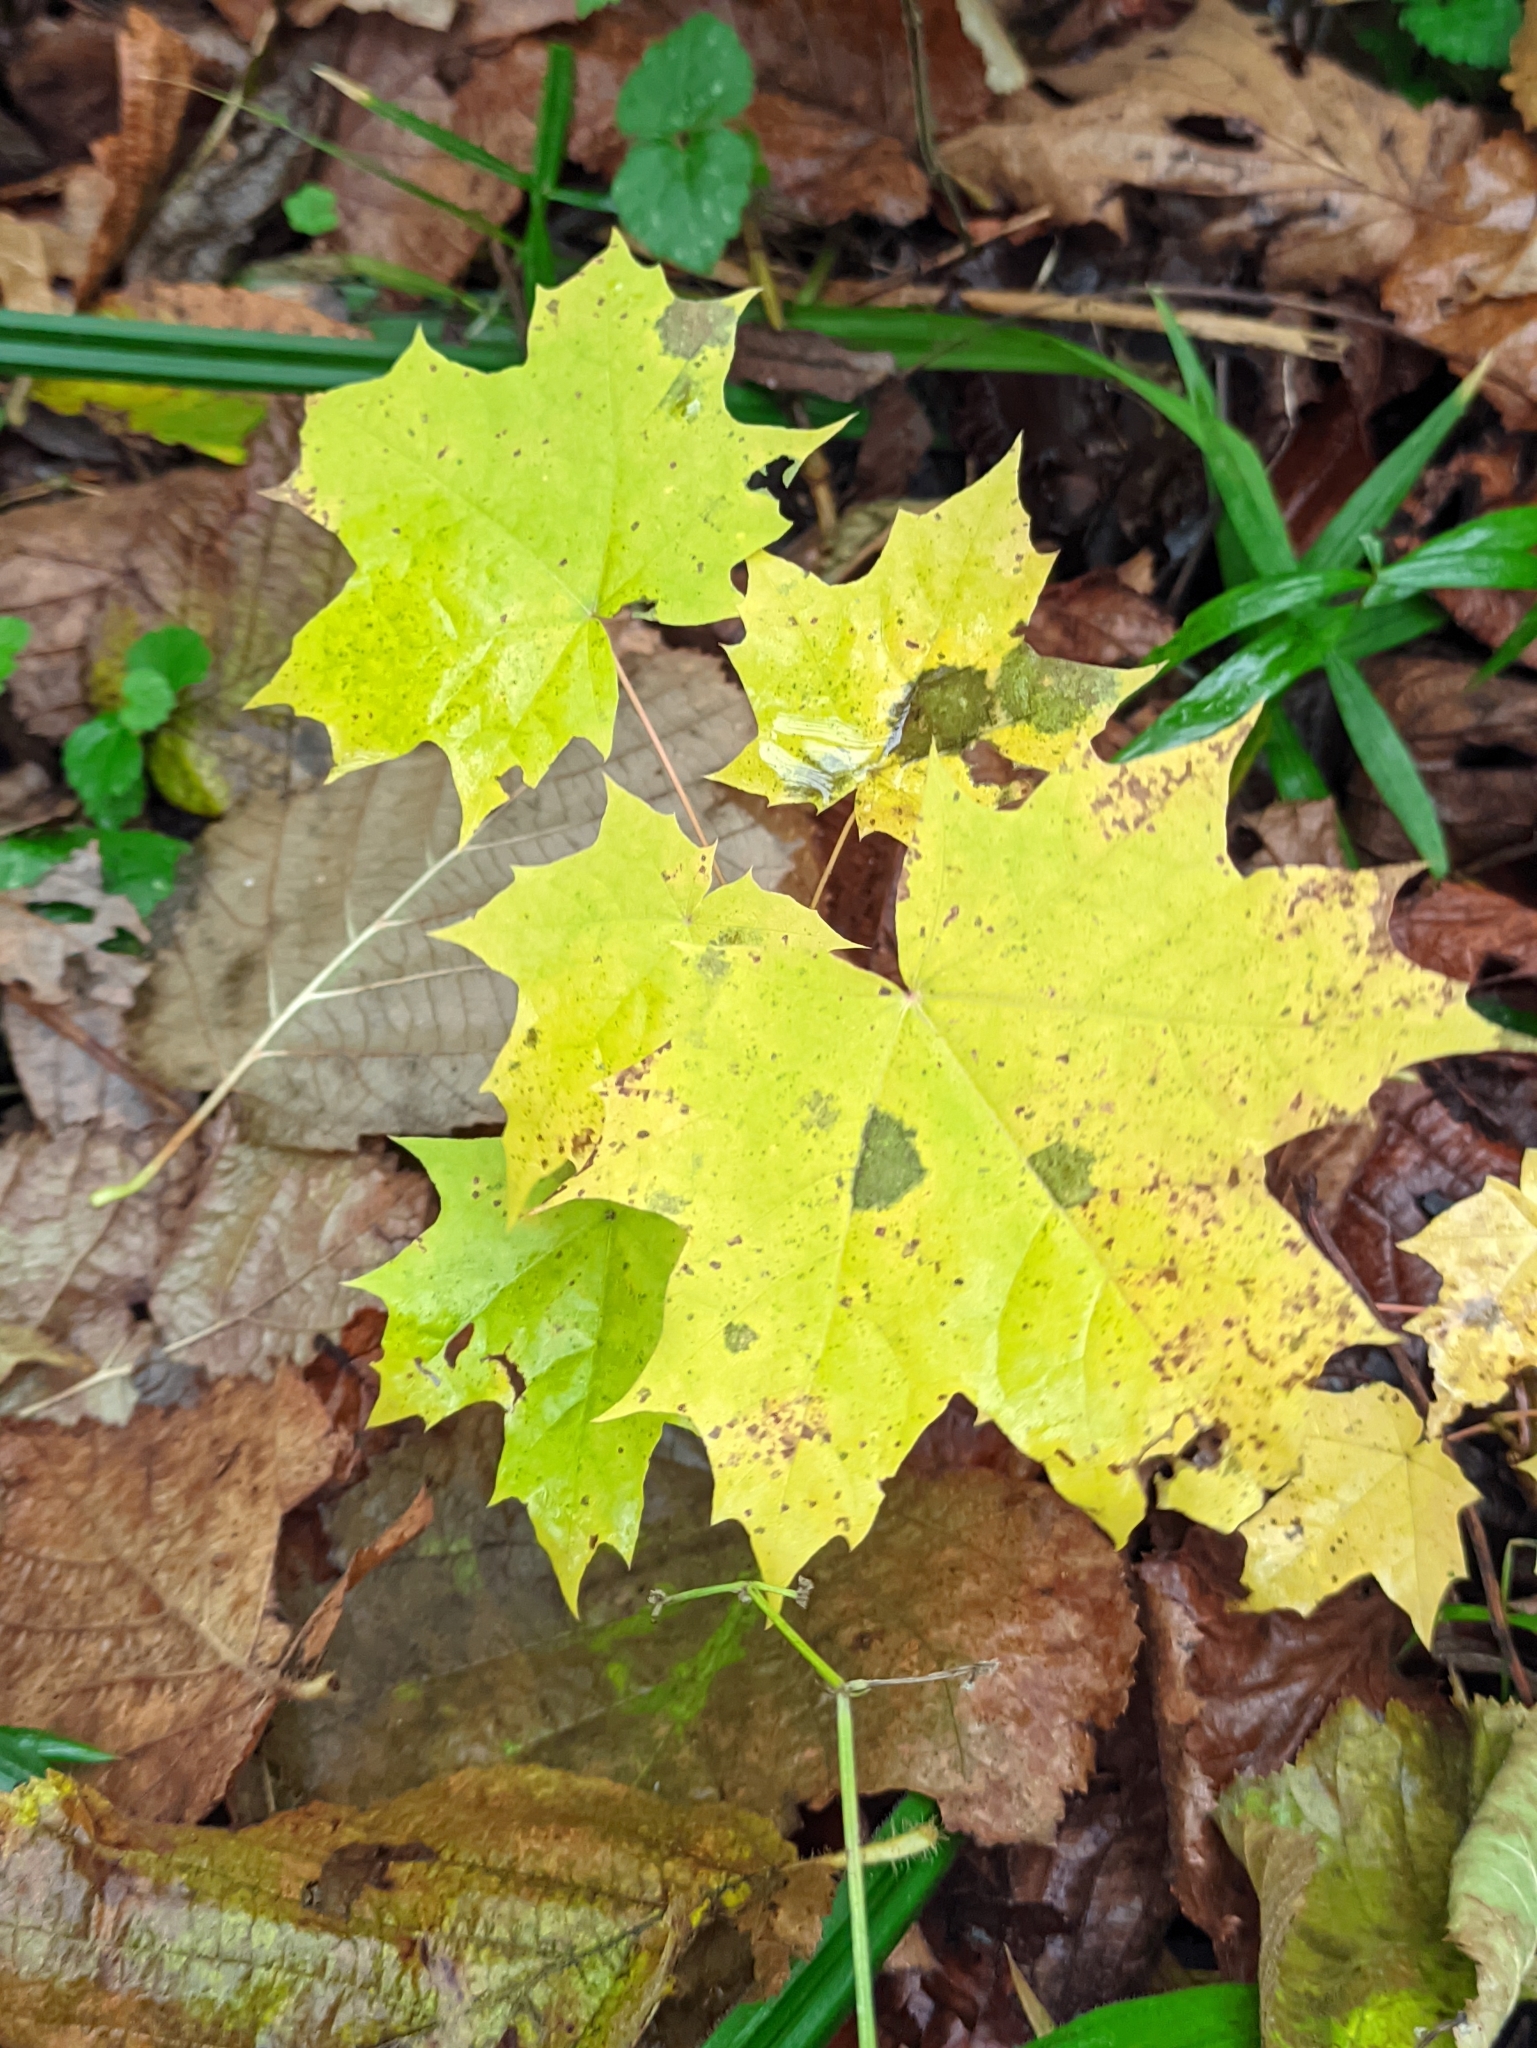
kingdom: Plantae
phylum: Tracheophyta
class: Magnoliopsida
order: Sapindales
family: Sapindaceae
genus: Acer
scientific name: Acer platanoides
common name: Norway maple
